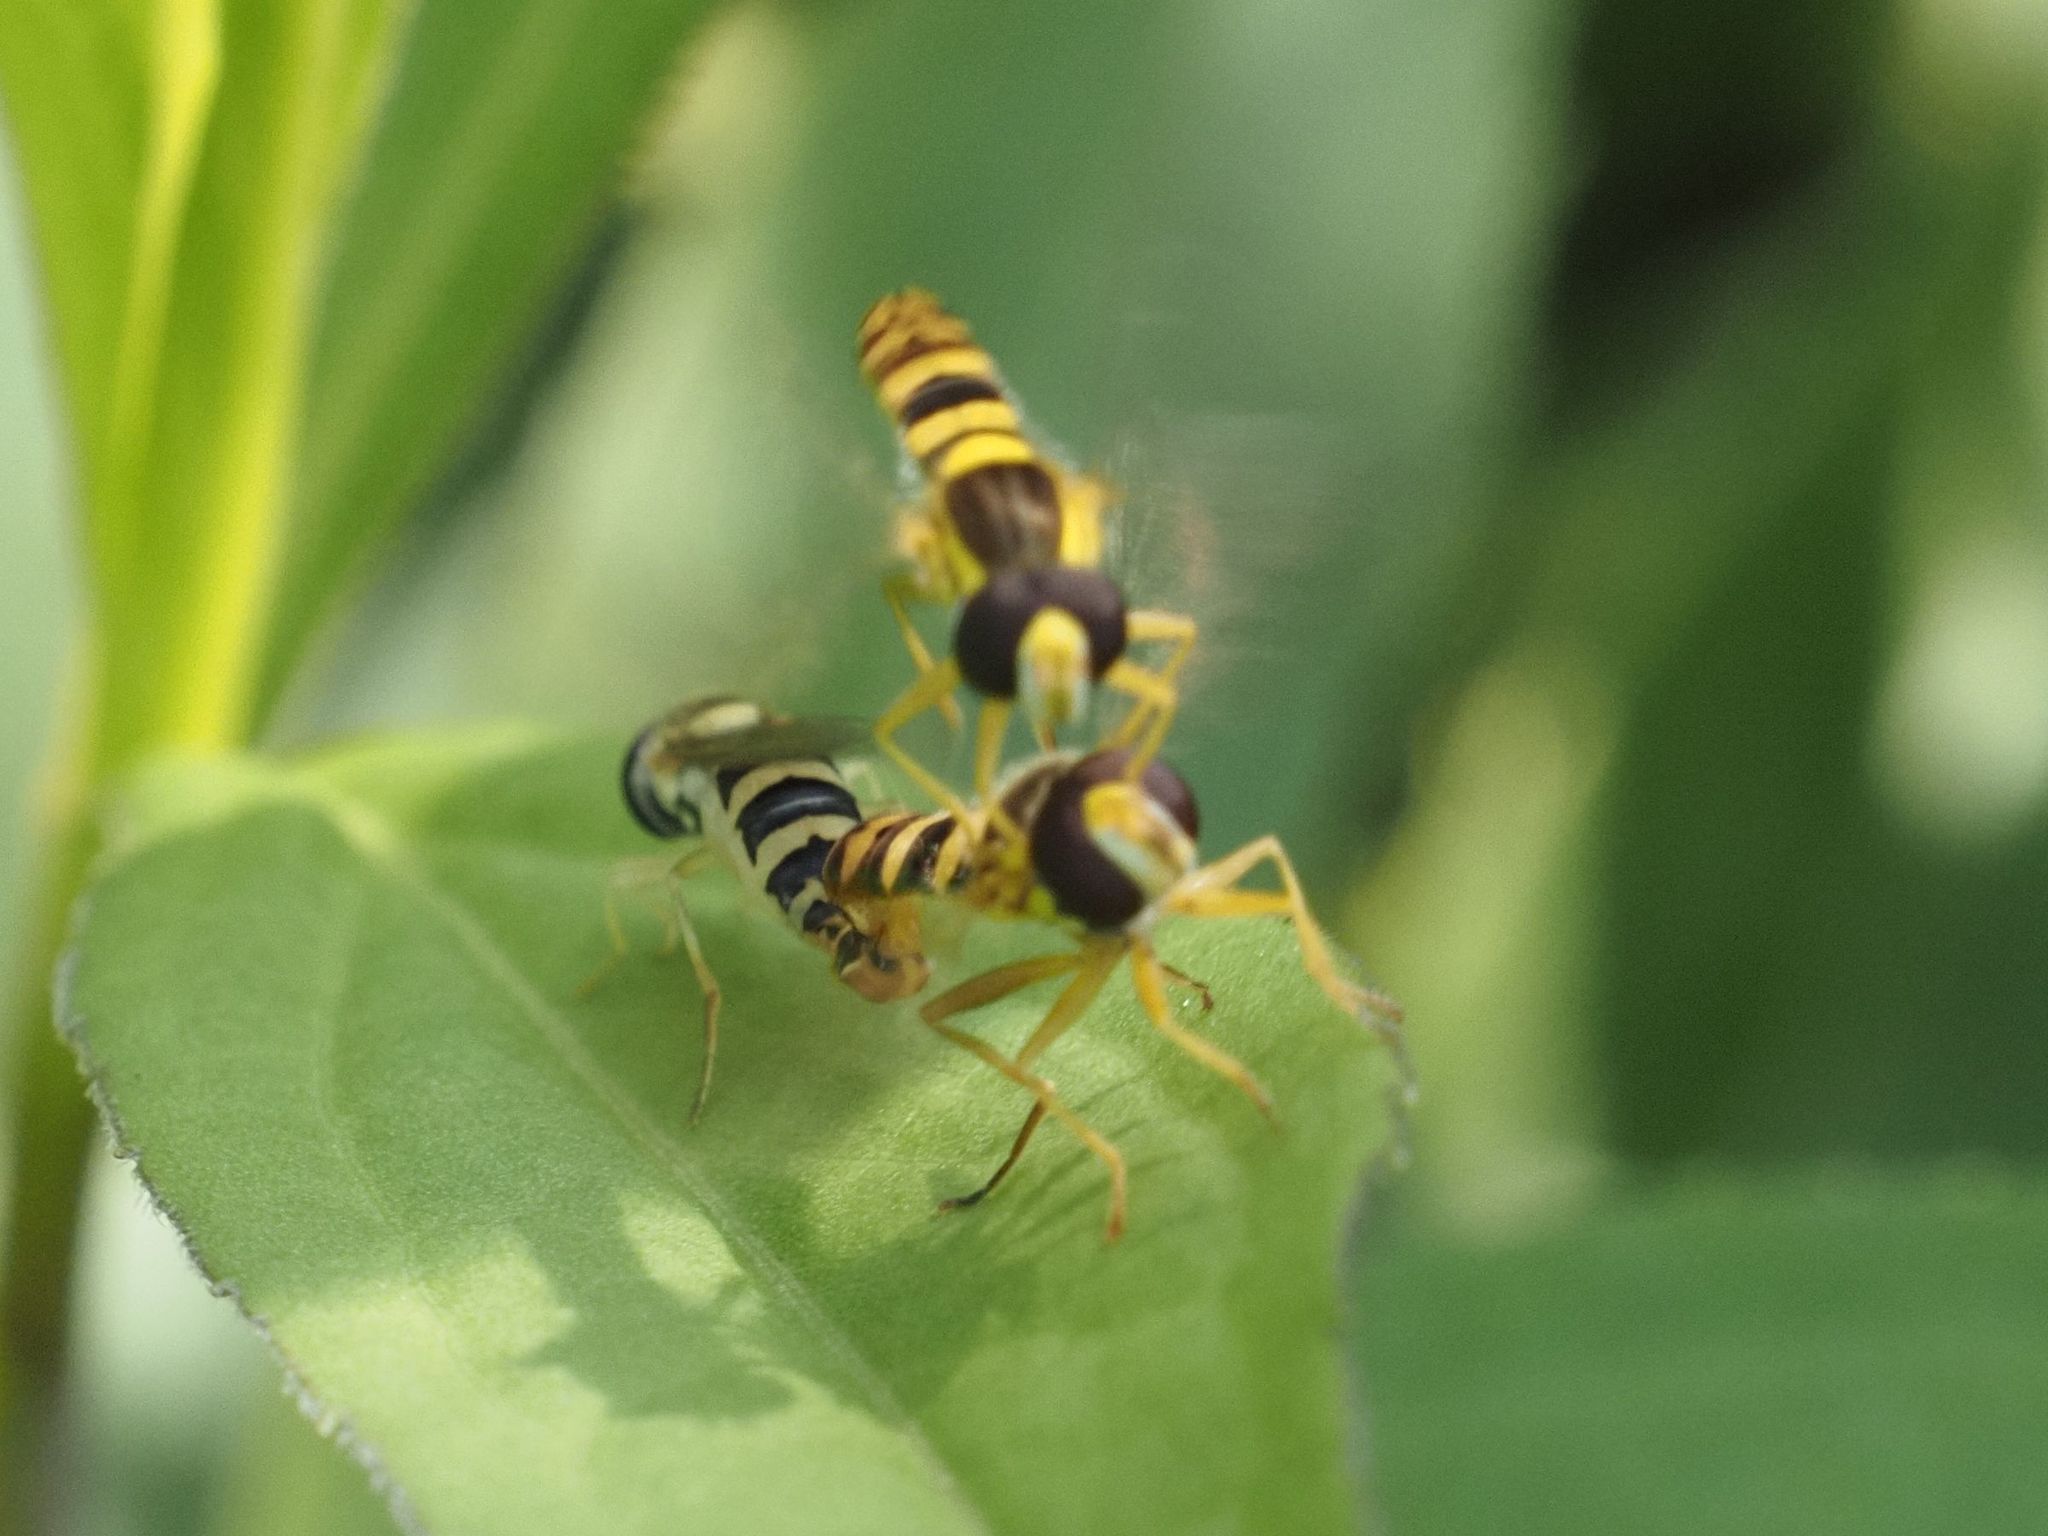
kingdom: Animalia
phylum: Arthropoda
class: Insecta
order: Diptera
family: Syrphidae
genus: Sphaerophoria
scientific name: Sphaerophoria
